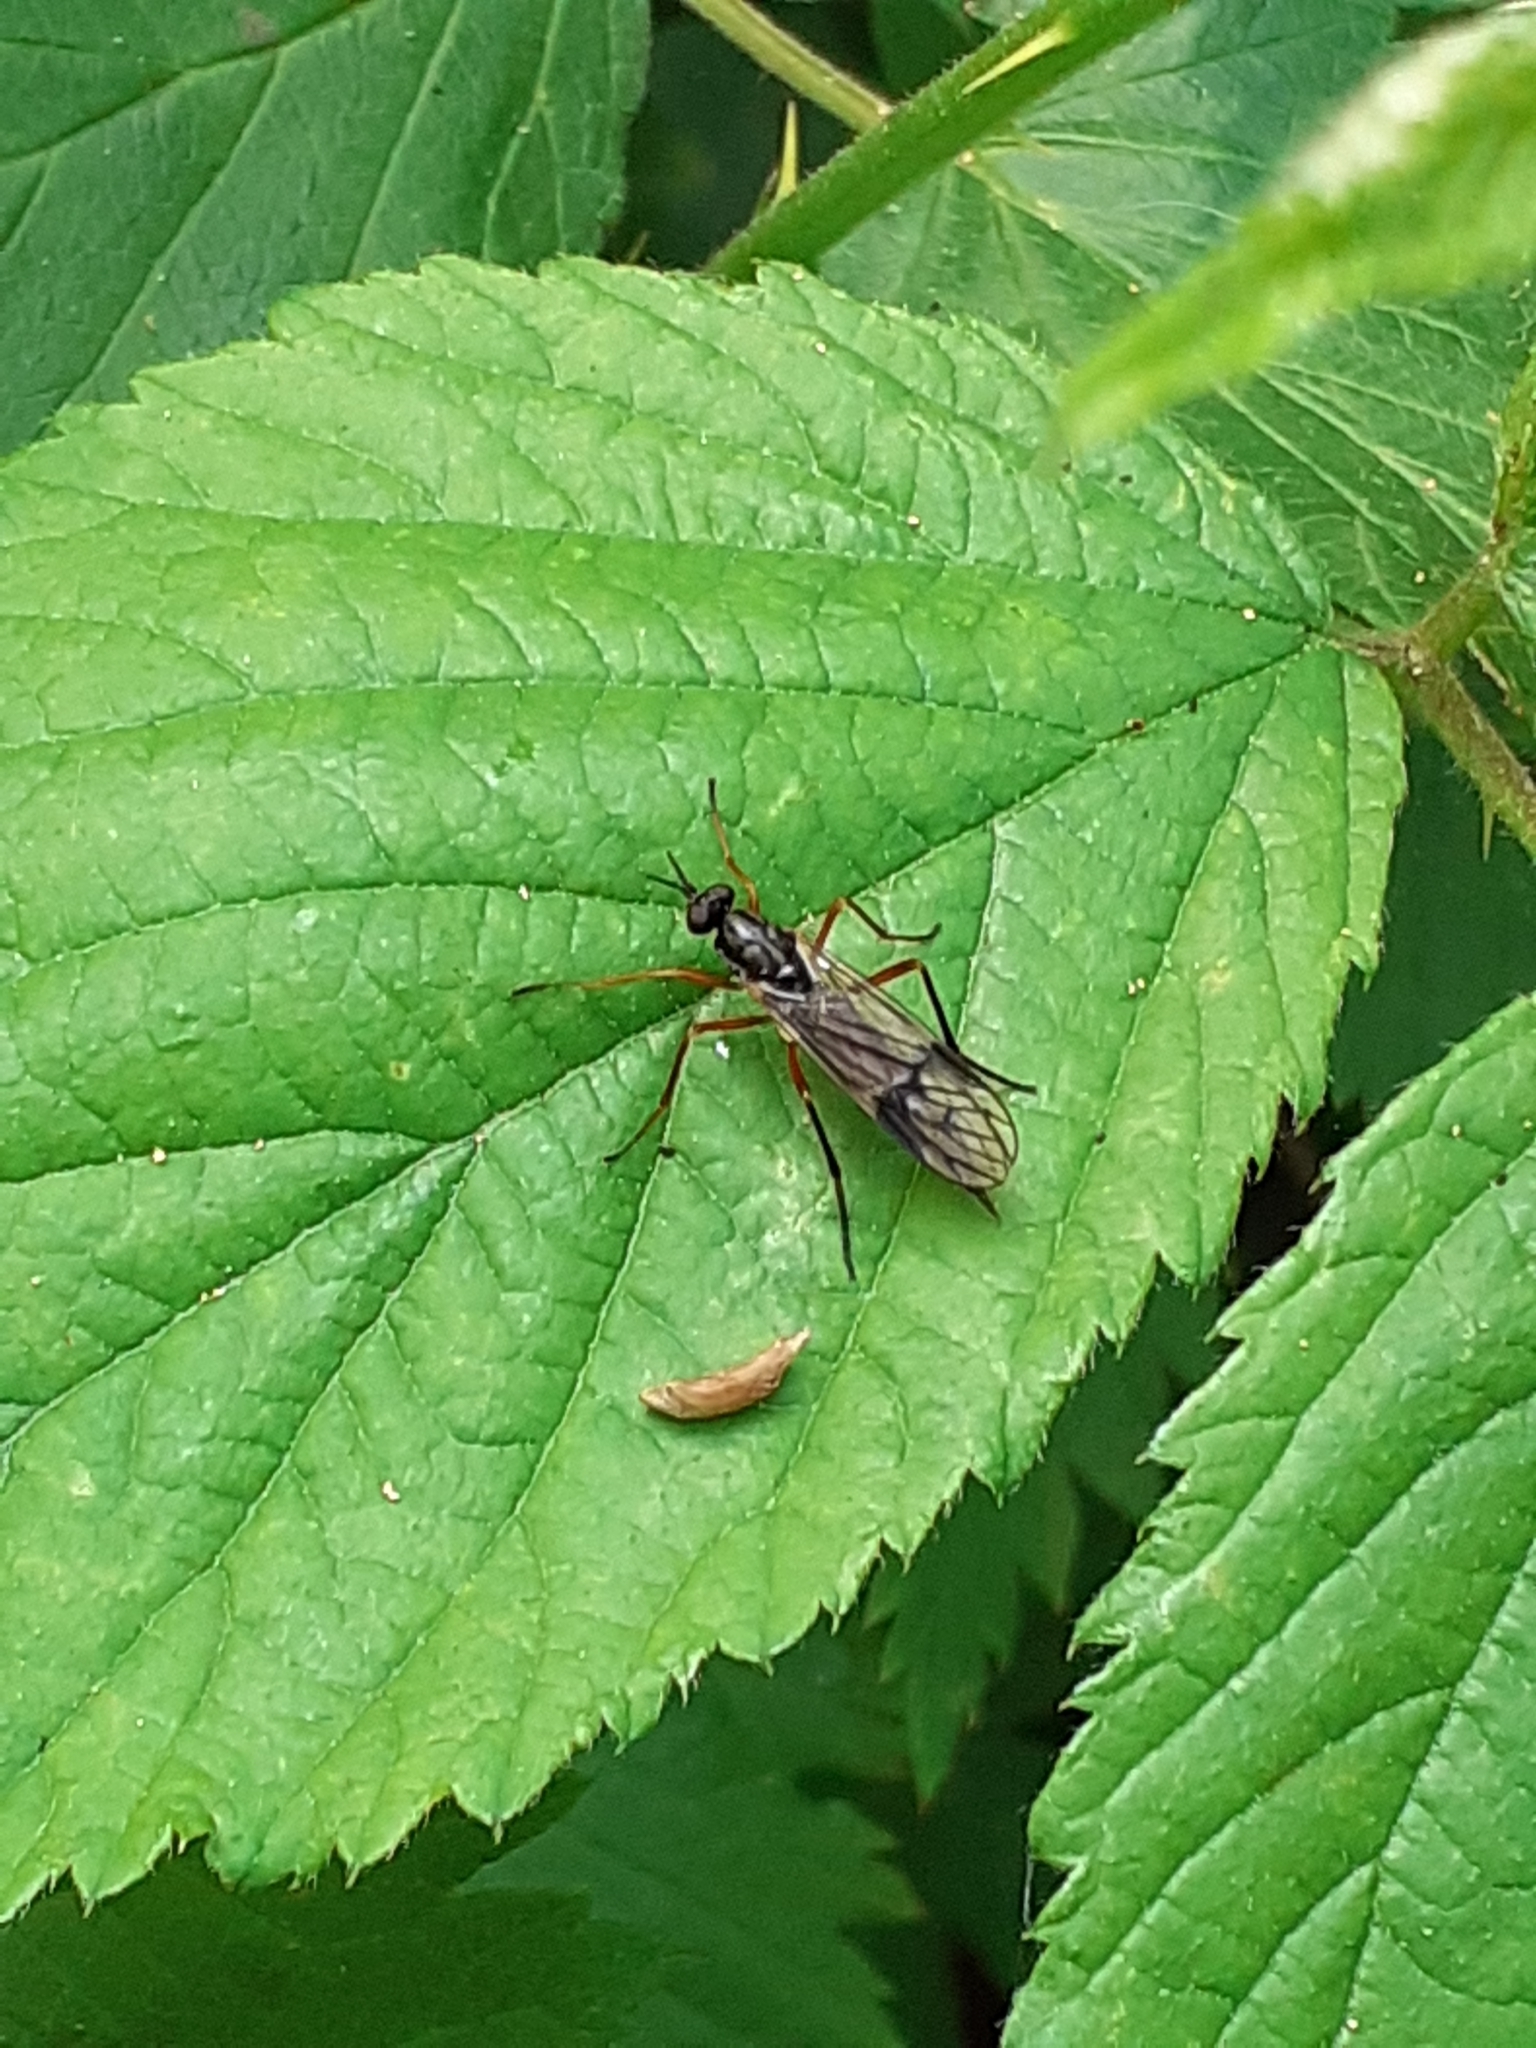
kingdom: Animalia
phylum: Arthropoda
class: Insecta
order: Diptera
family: Xylophagidae
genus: Xylophagus
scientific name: Xylophagus ater
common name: Common awl-fly
